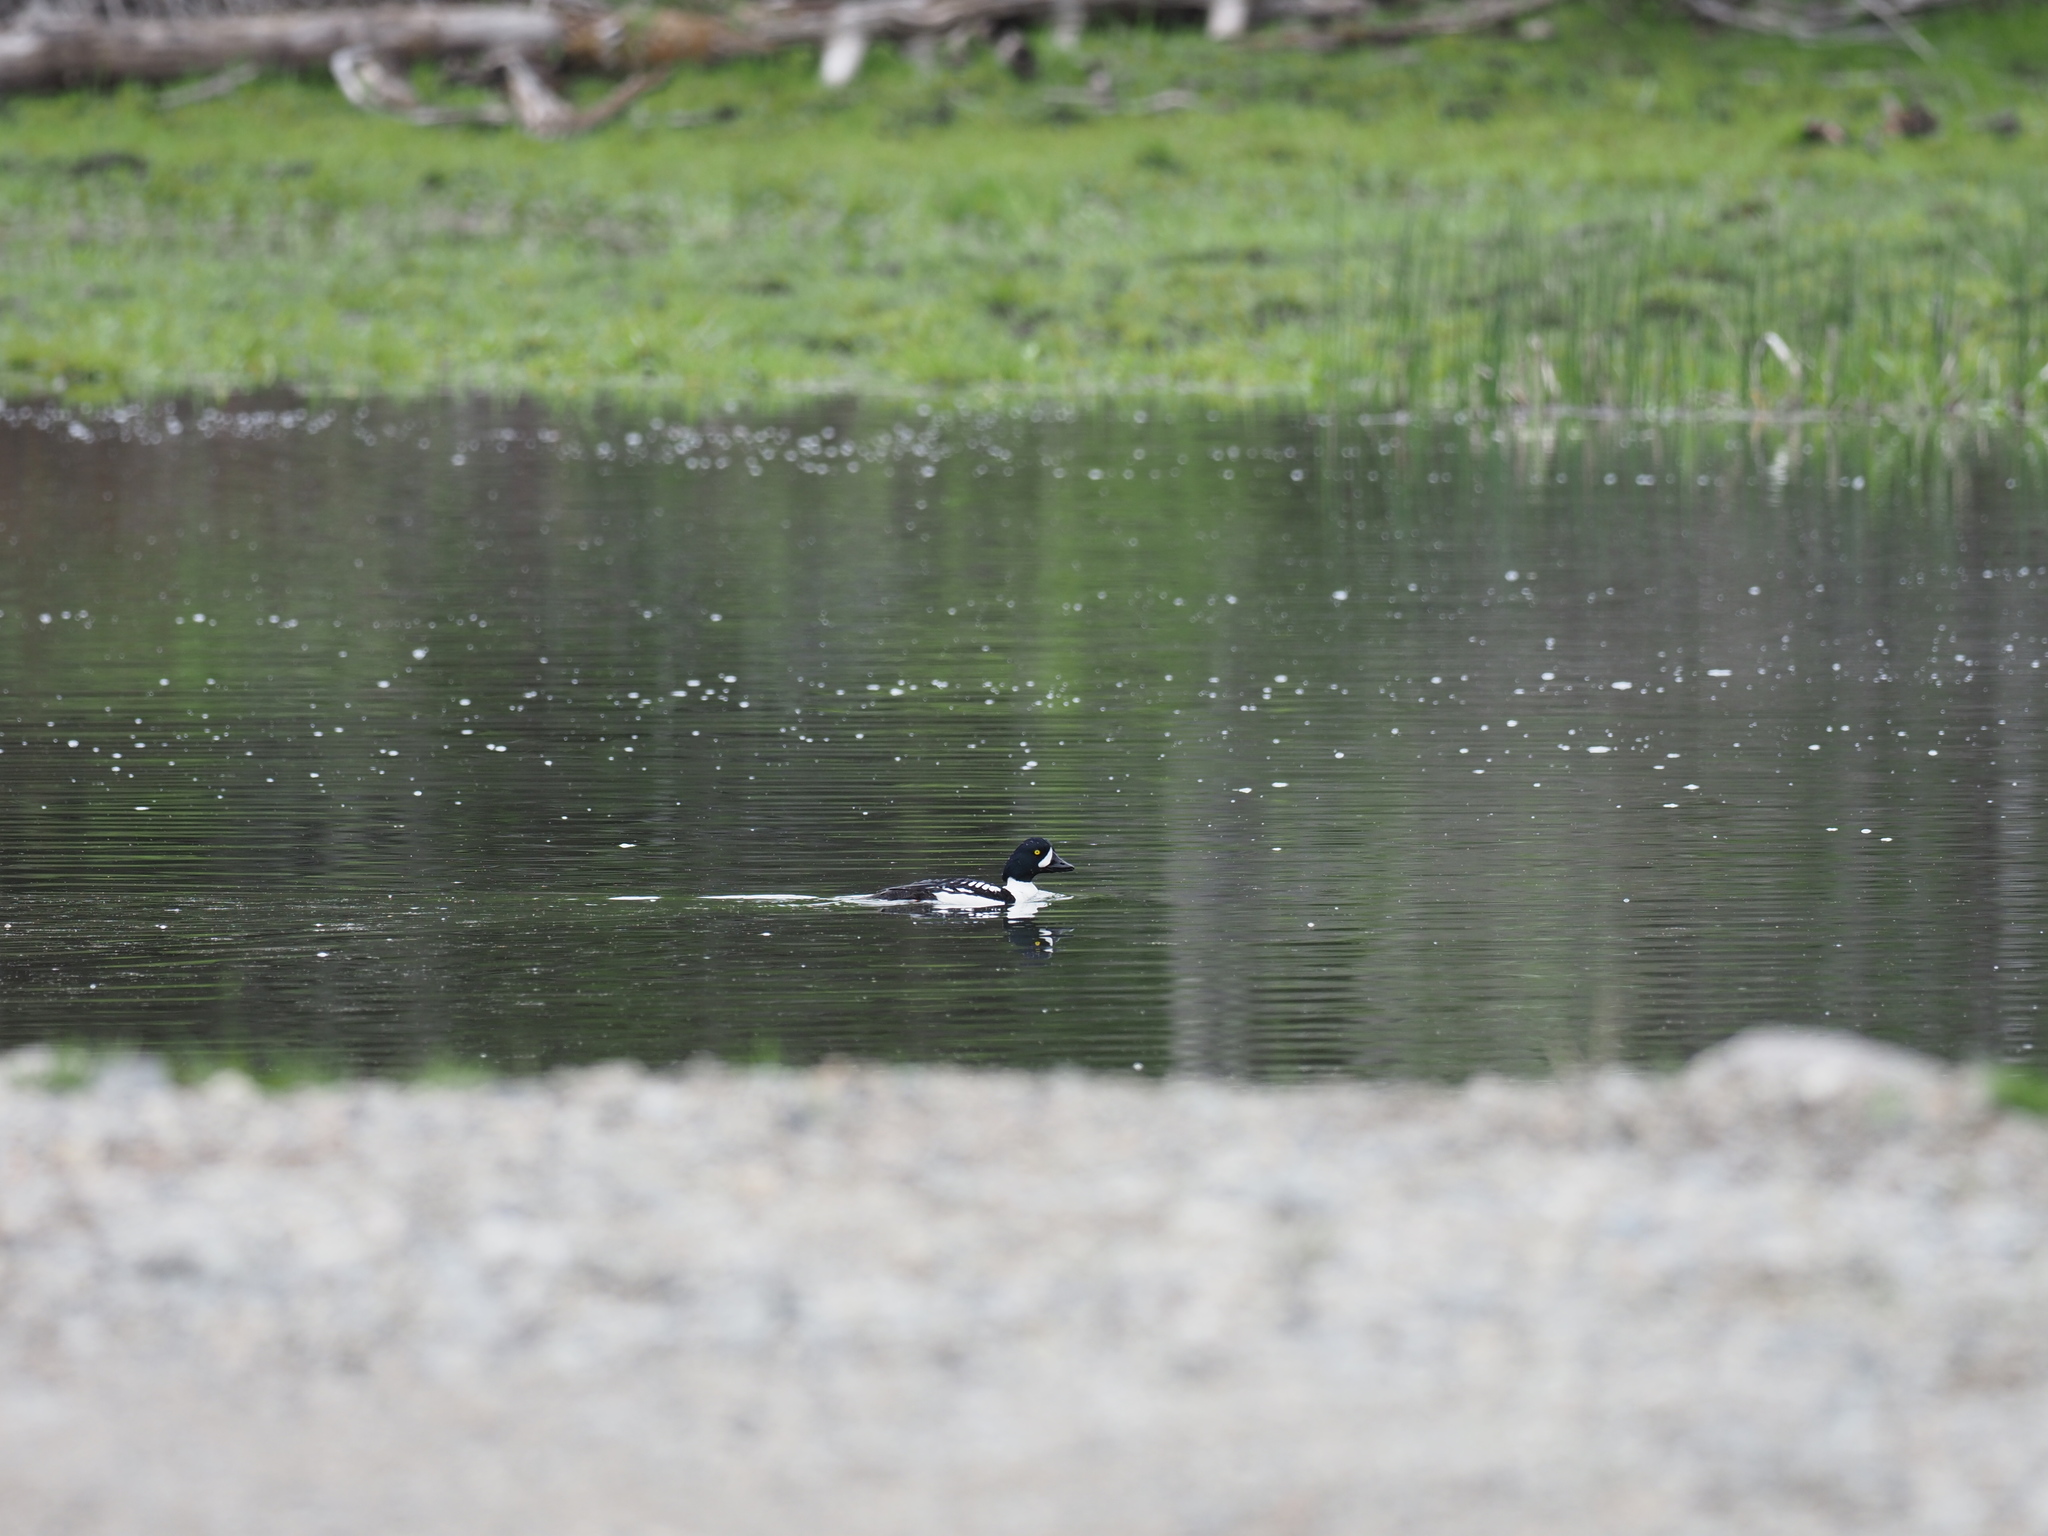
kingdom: Animalia
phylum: Chordata
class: Aves
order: Anseriformes
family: Anatidae
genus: Bucephala
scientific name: Bucephala islandica
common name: Barrow's goldeneye
